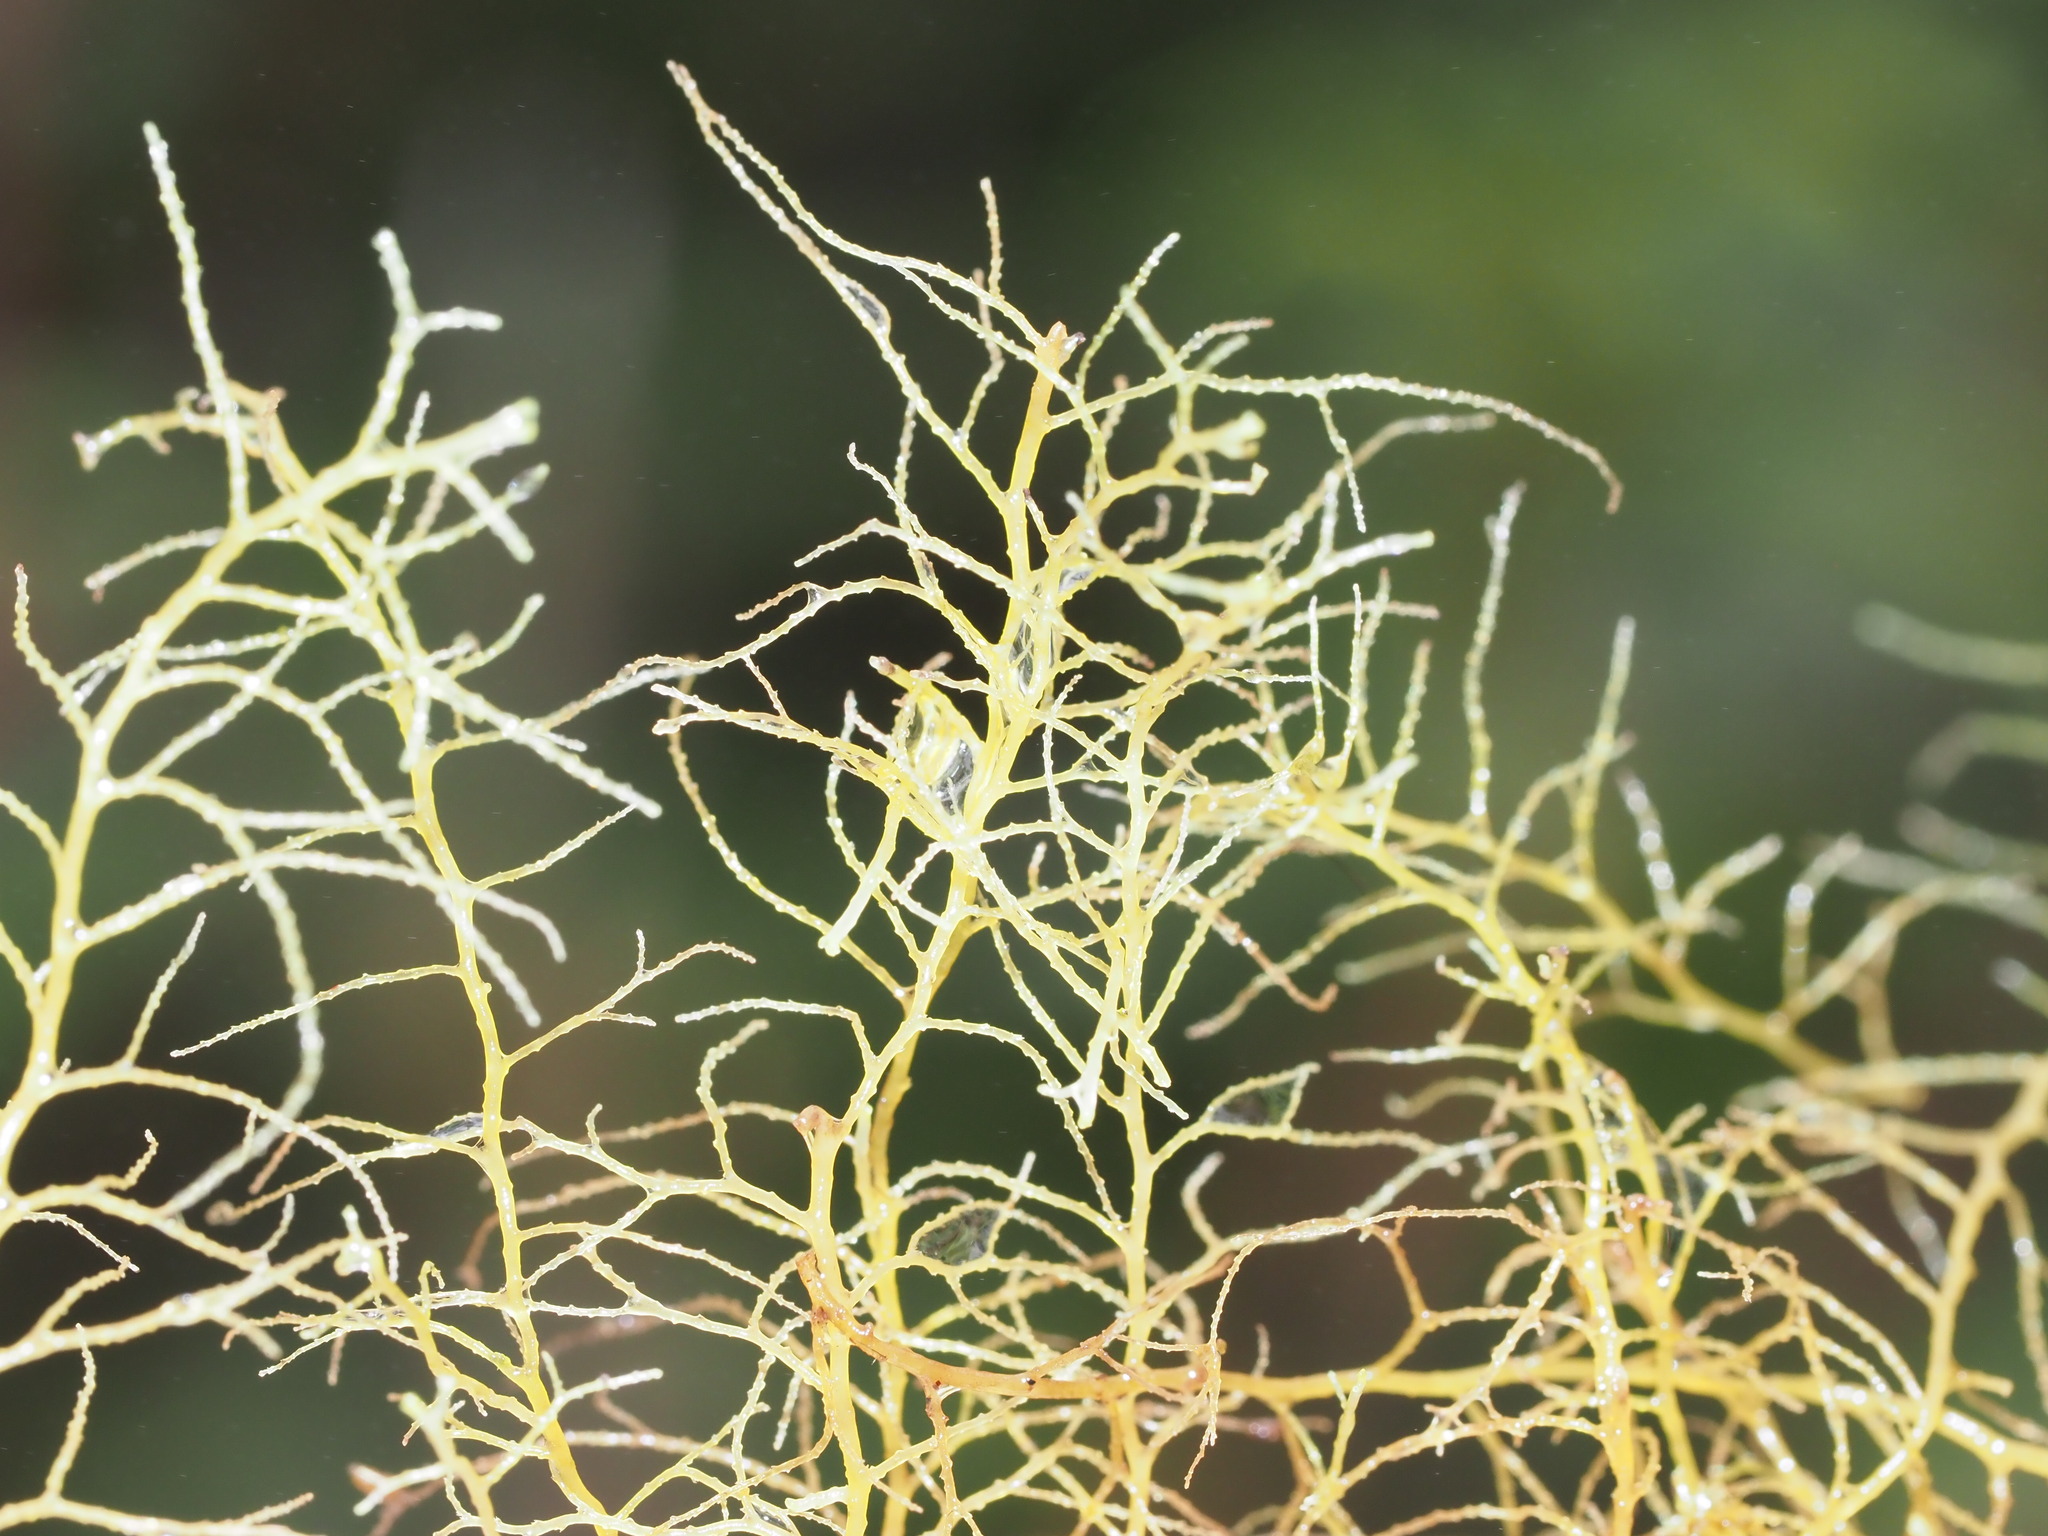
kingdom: Plantae
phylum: Marchantiophyta
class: Jungermanniopsida
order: Jungermanniales
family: Lepidoziaceae
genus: Lepidozia
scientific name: Lepidozia sandvicensis
